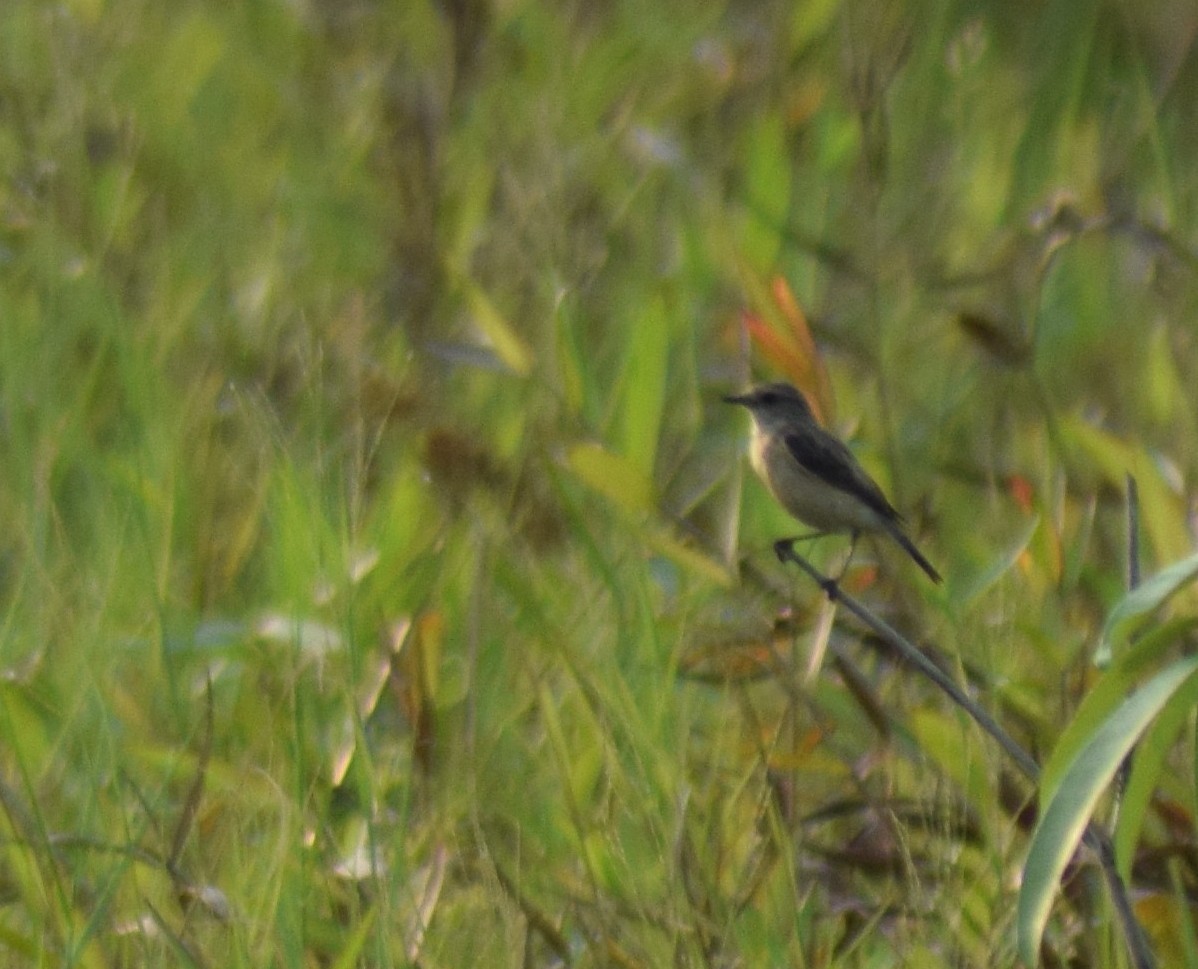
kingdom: Animalia
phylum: Chordata
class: Aves
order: Passeriformes
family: Muscicapidae
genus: Saxicola
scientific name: Saxicola maurus
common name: Siberian stonechat
